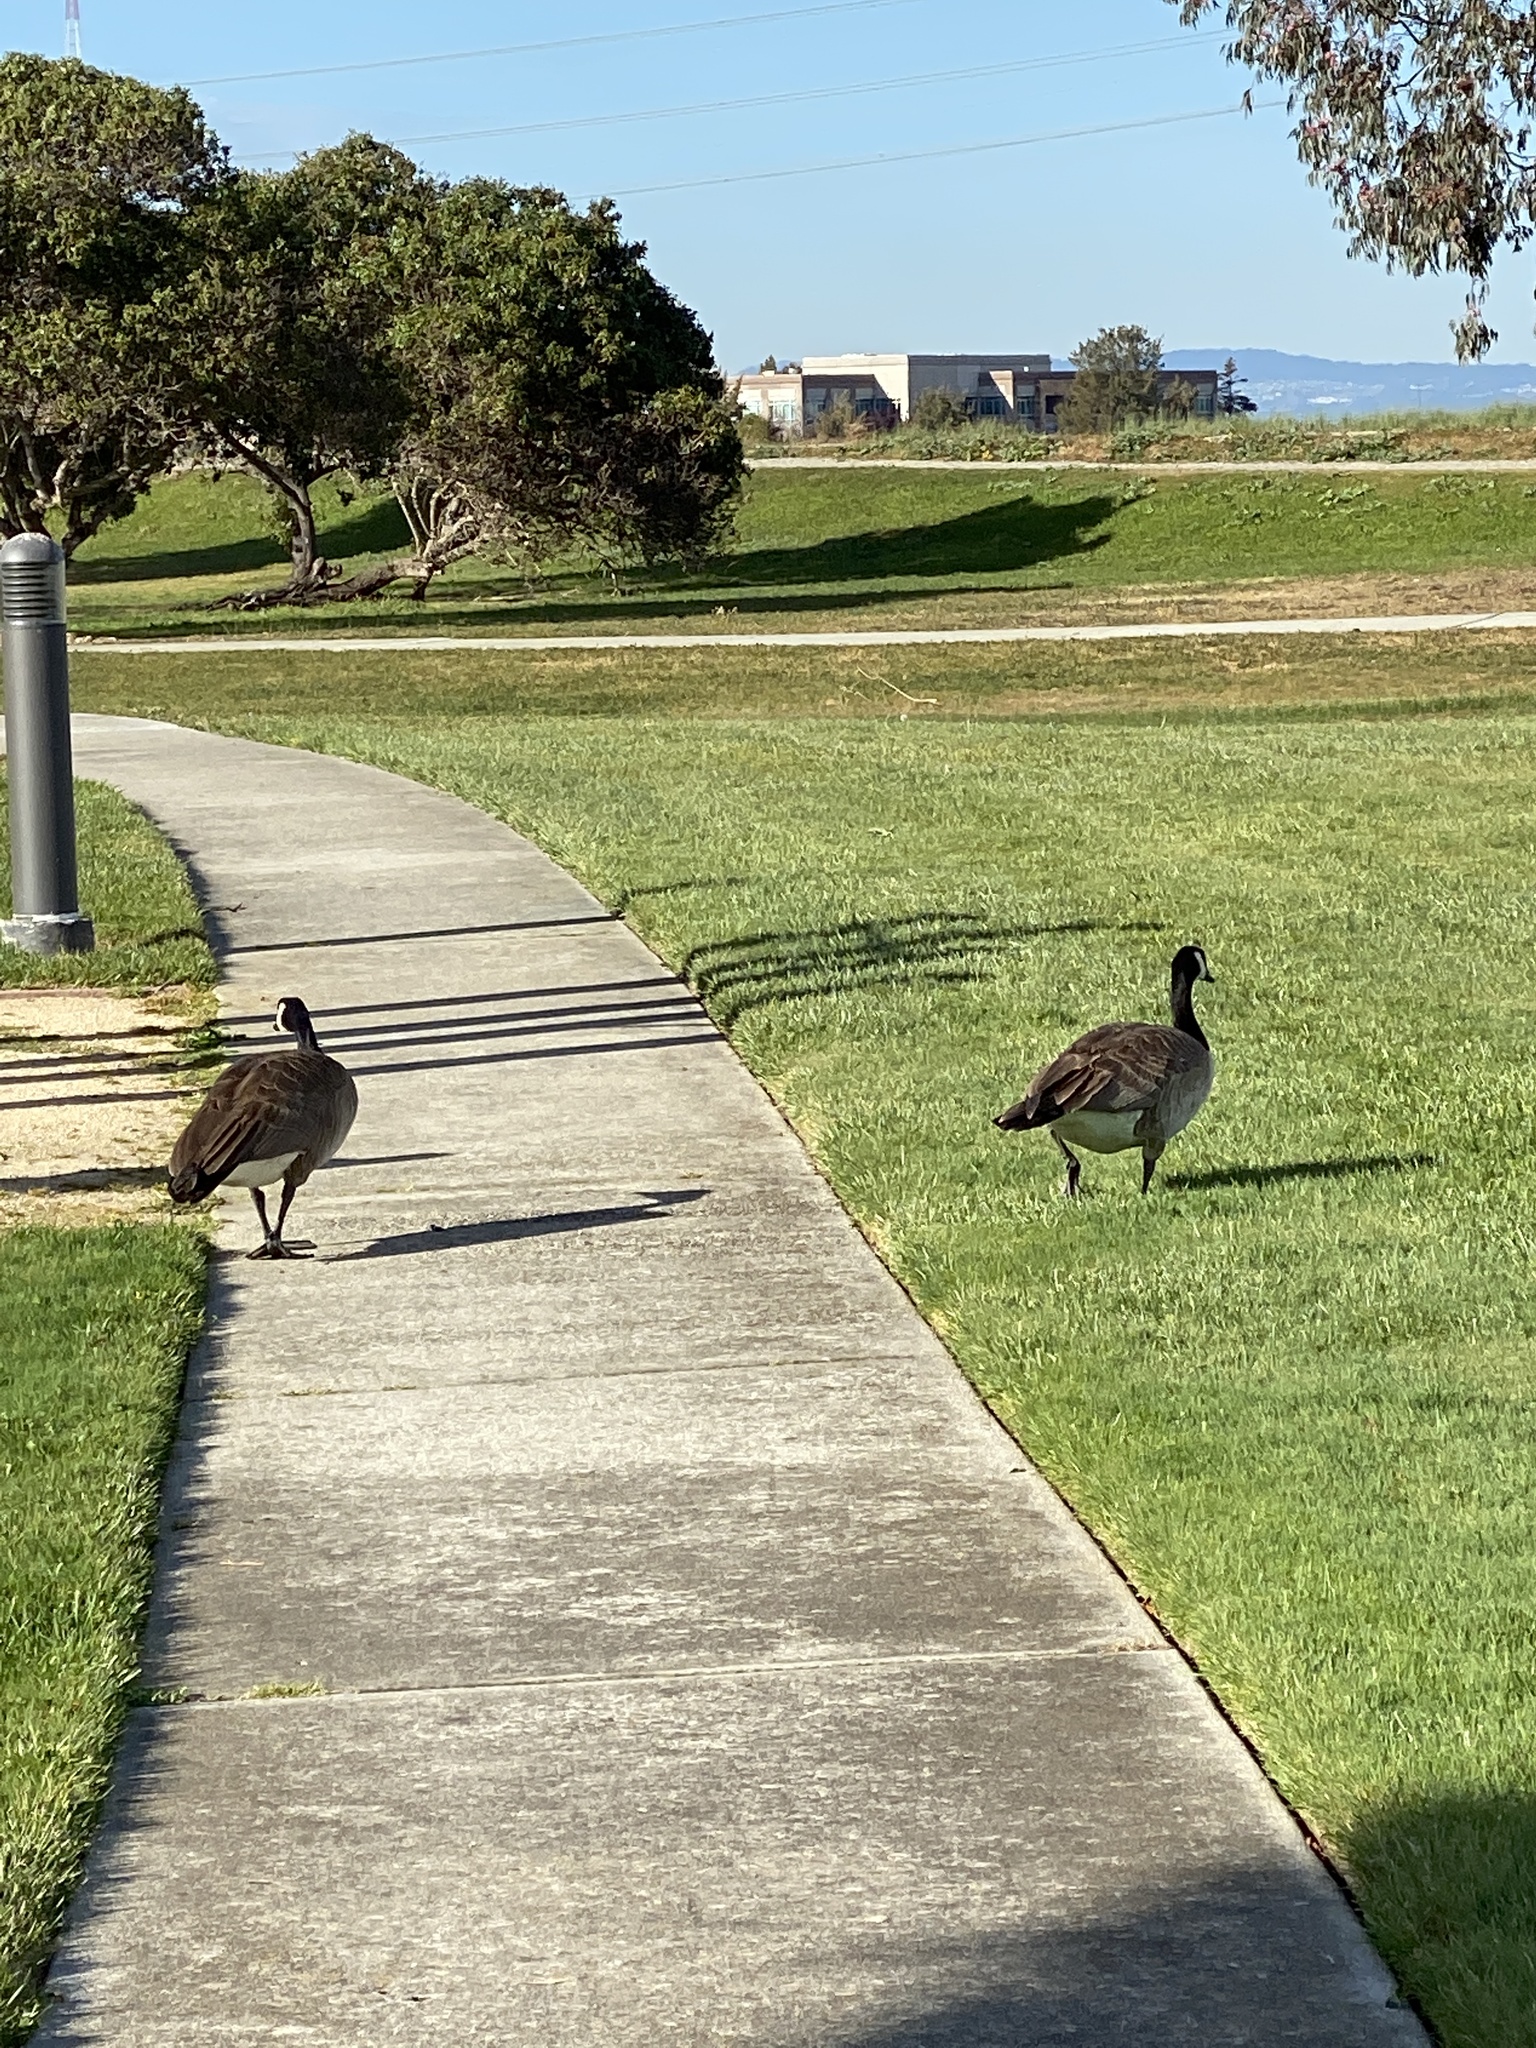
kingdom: Animalia
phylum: Chordata
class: Aves
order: Anseriformes
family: Anatidae
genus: Branta
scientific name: Branta canadensis
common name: Canada goose
